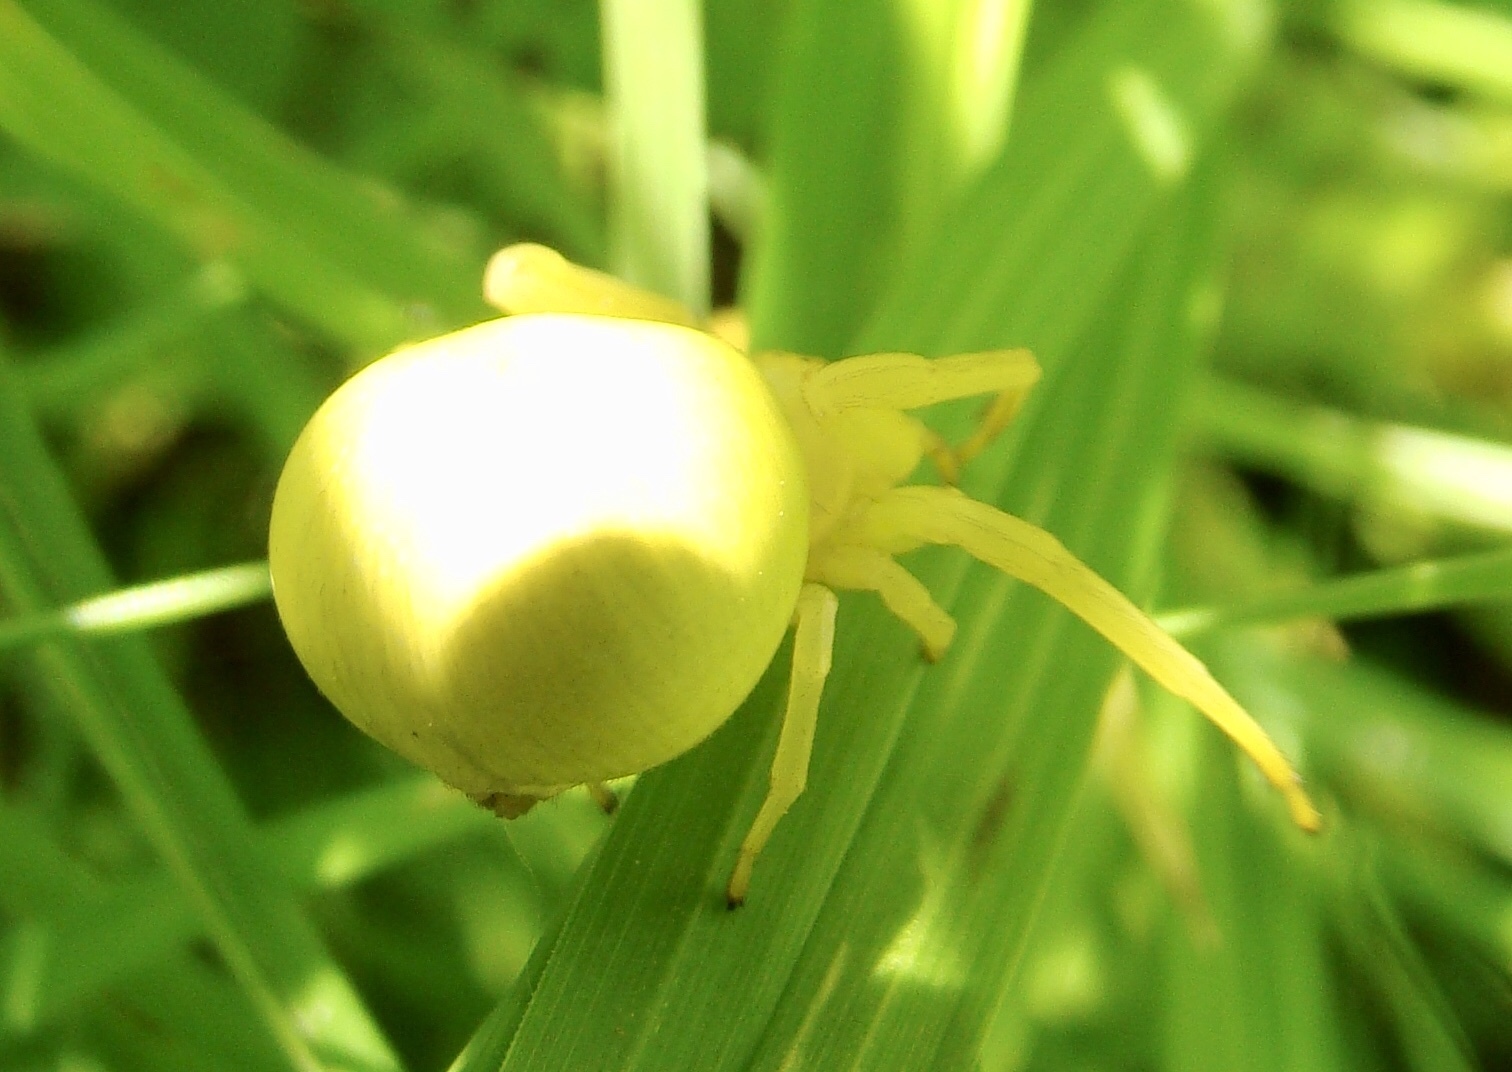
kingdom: Animalia
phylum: Arthropoda
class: Arachnida
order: Araneae
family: Thomisidae
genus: Misumena
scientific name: Misumena vatia
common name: Goldenrod crab spider
